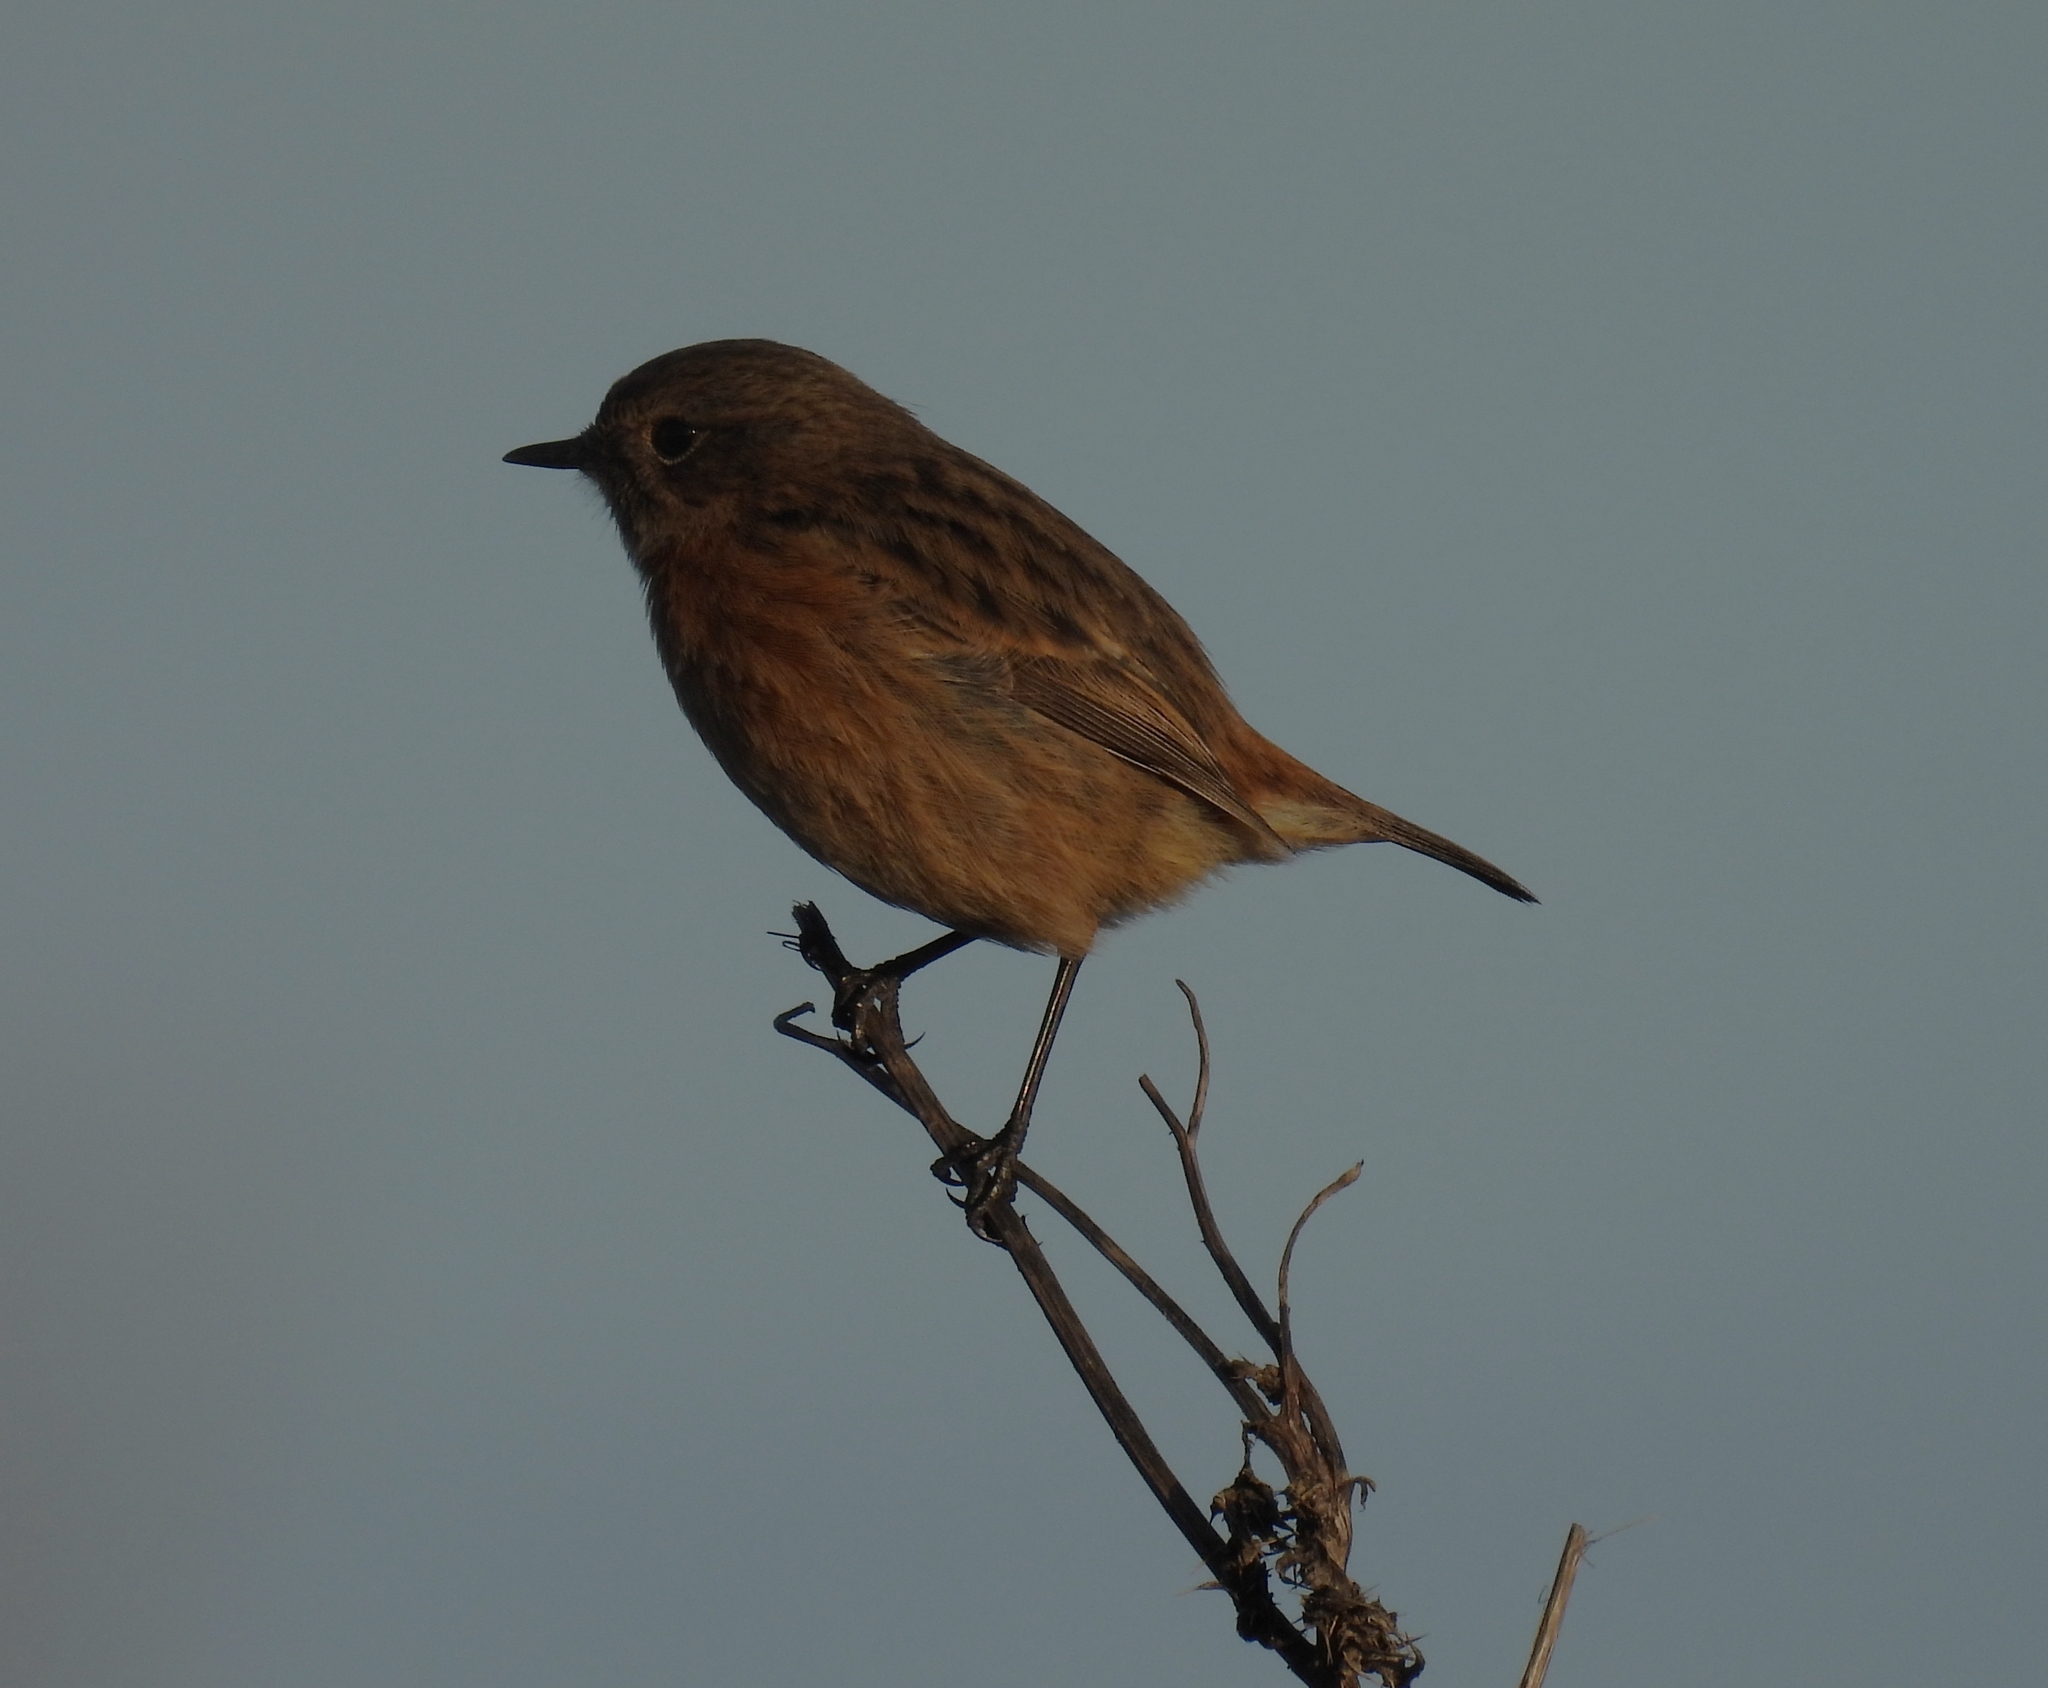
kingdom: Animalia
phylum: Chordata
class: Aves
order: Passeriformes
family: Muscicapidae
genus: Saxicola
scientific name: Saxicola rubicola
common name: European stonechat
